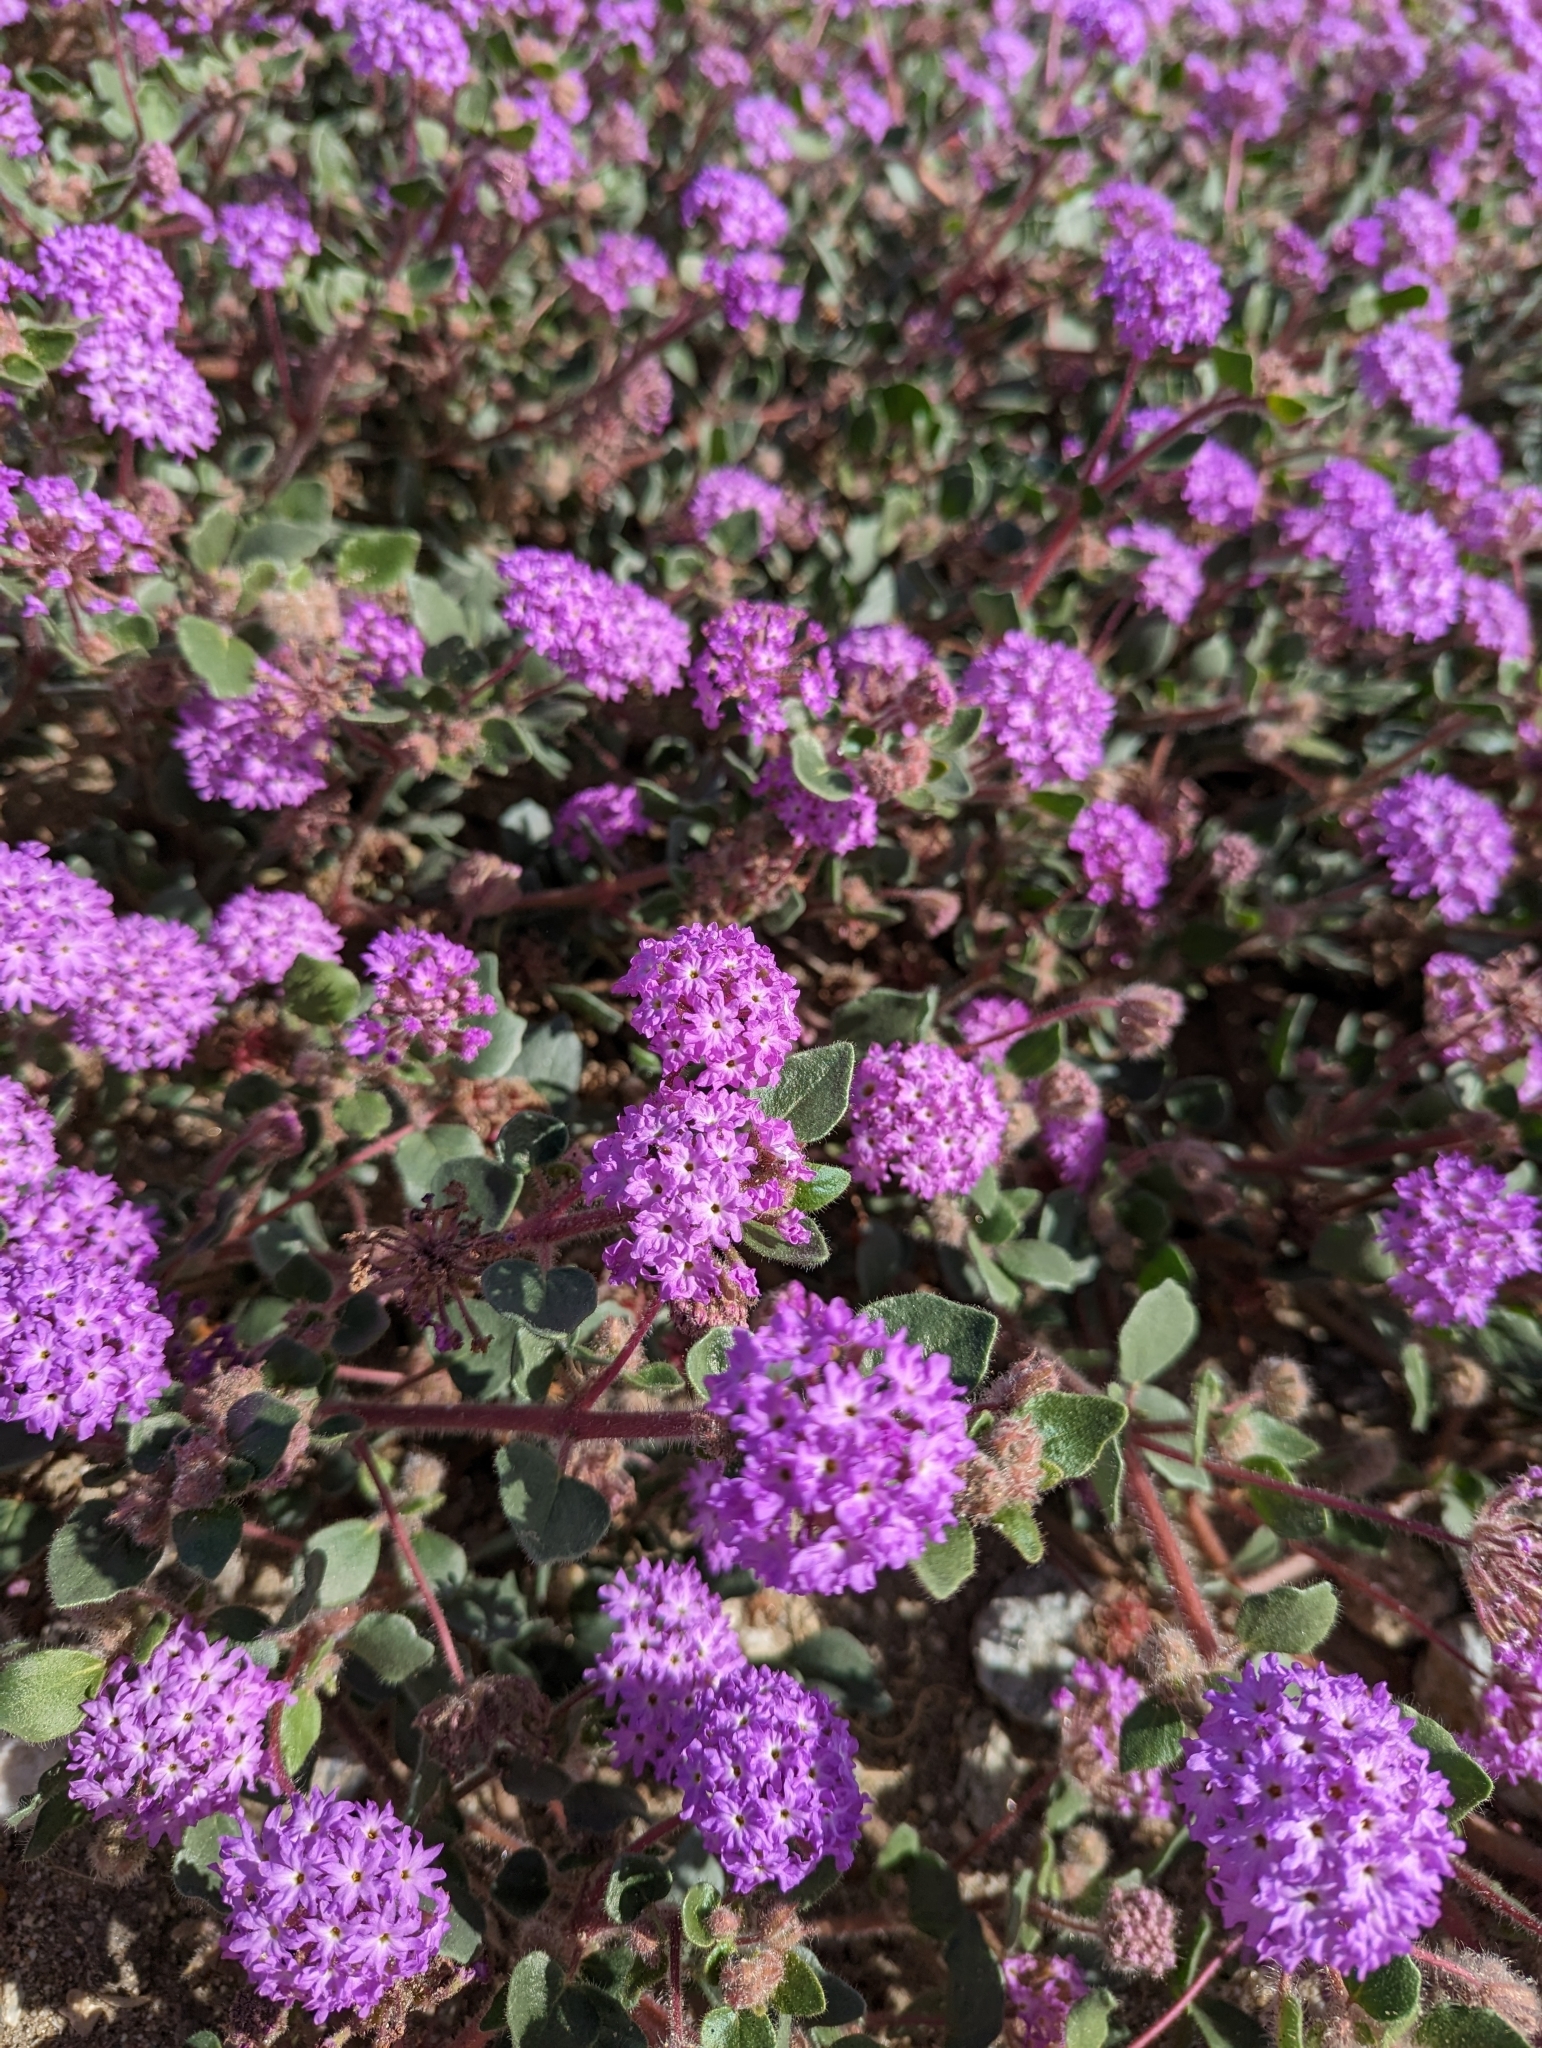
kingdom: Plantae
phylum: Tracheophyta
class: Magnoliopsida
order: Caryophyllales
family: Nyctaginaceae
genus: Abronia
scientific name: Abronia villosa
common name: Desert sand-verbena
